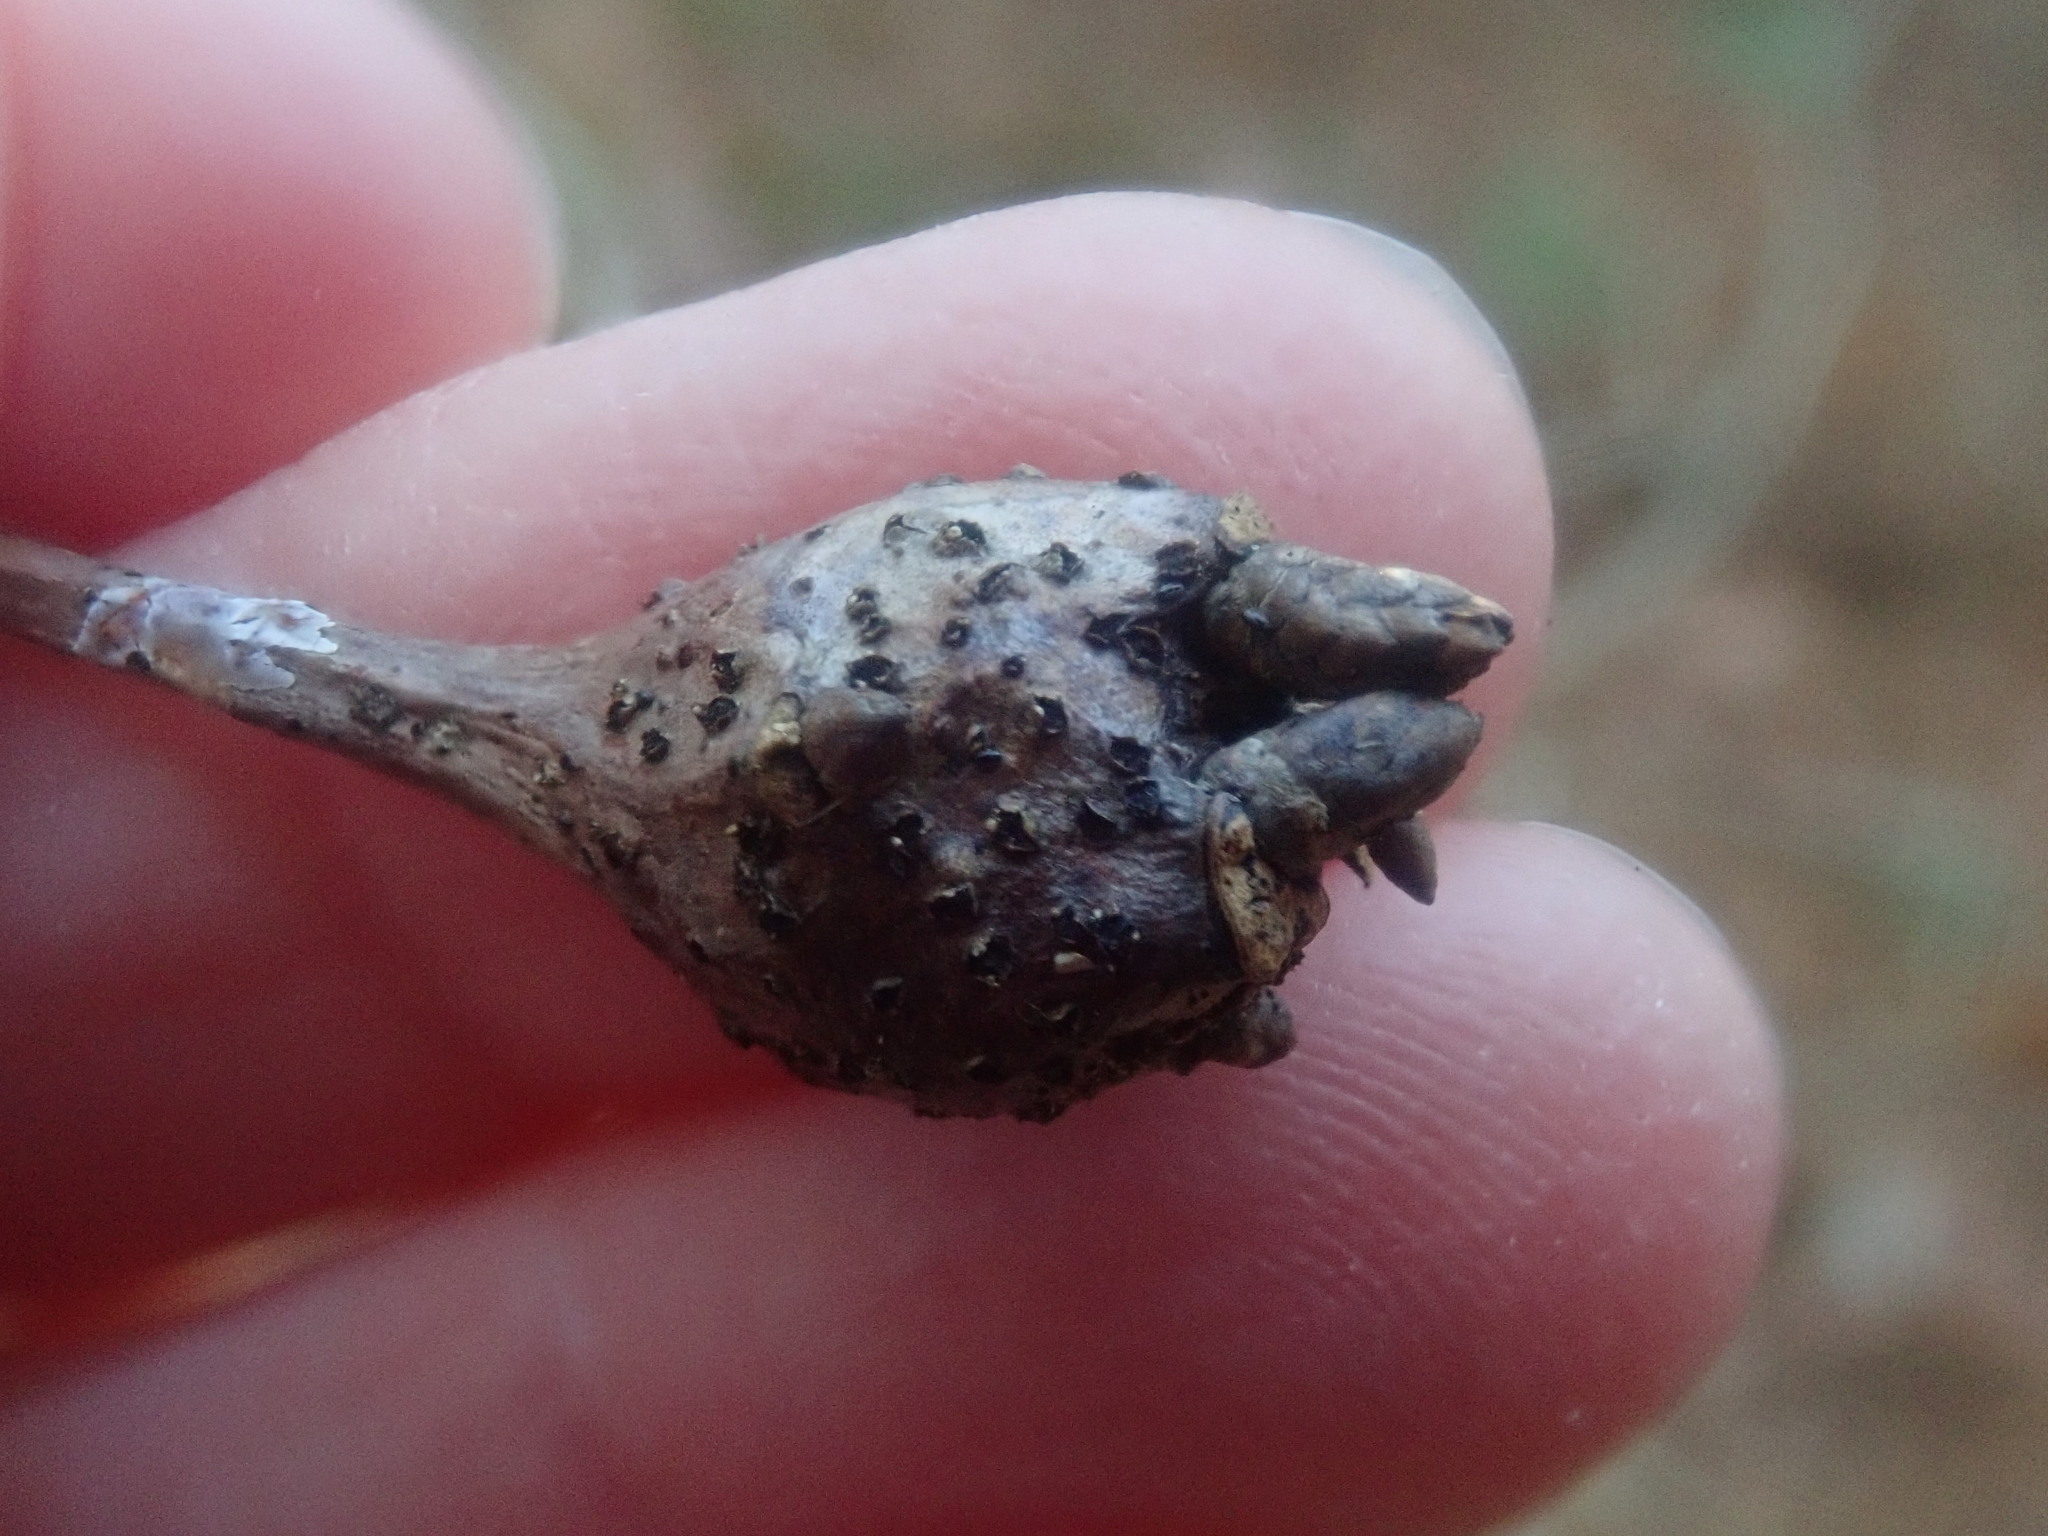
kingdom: Animalia
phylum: Arthropoda
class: Insecta
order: Hymenoptera
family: Cynipidae
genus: Callirhytis
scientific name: Callirhytis clavula
